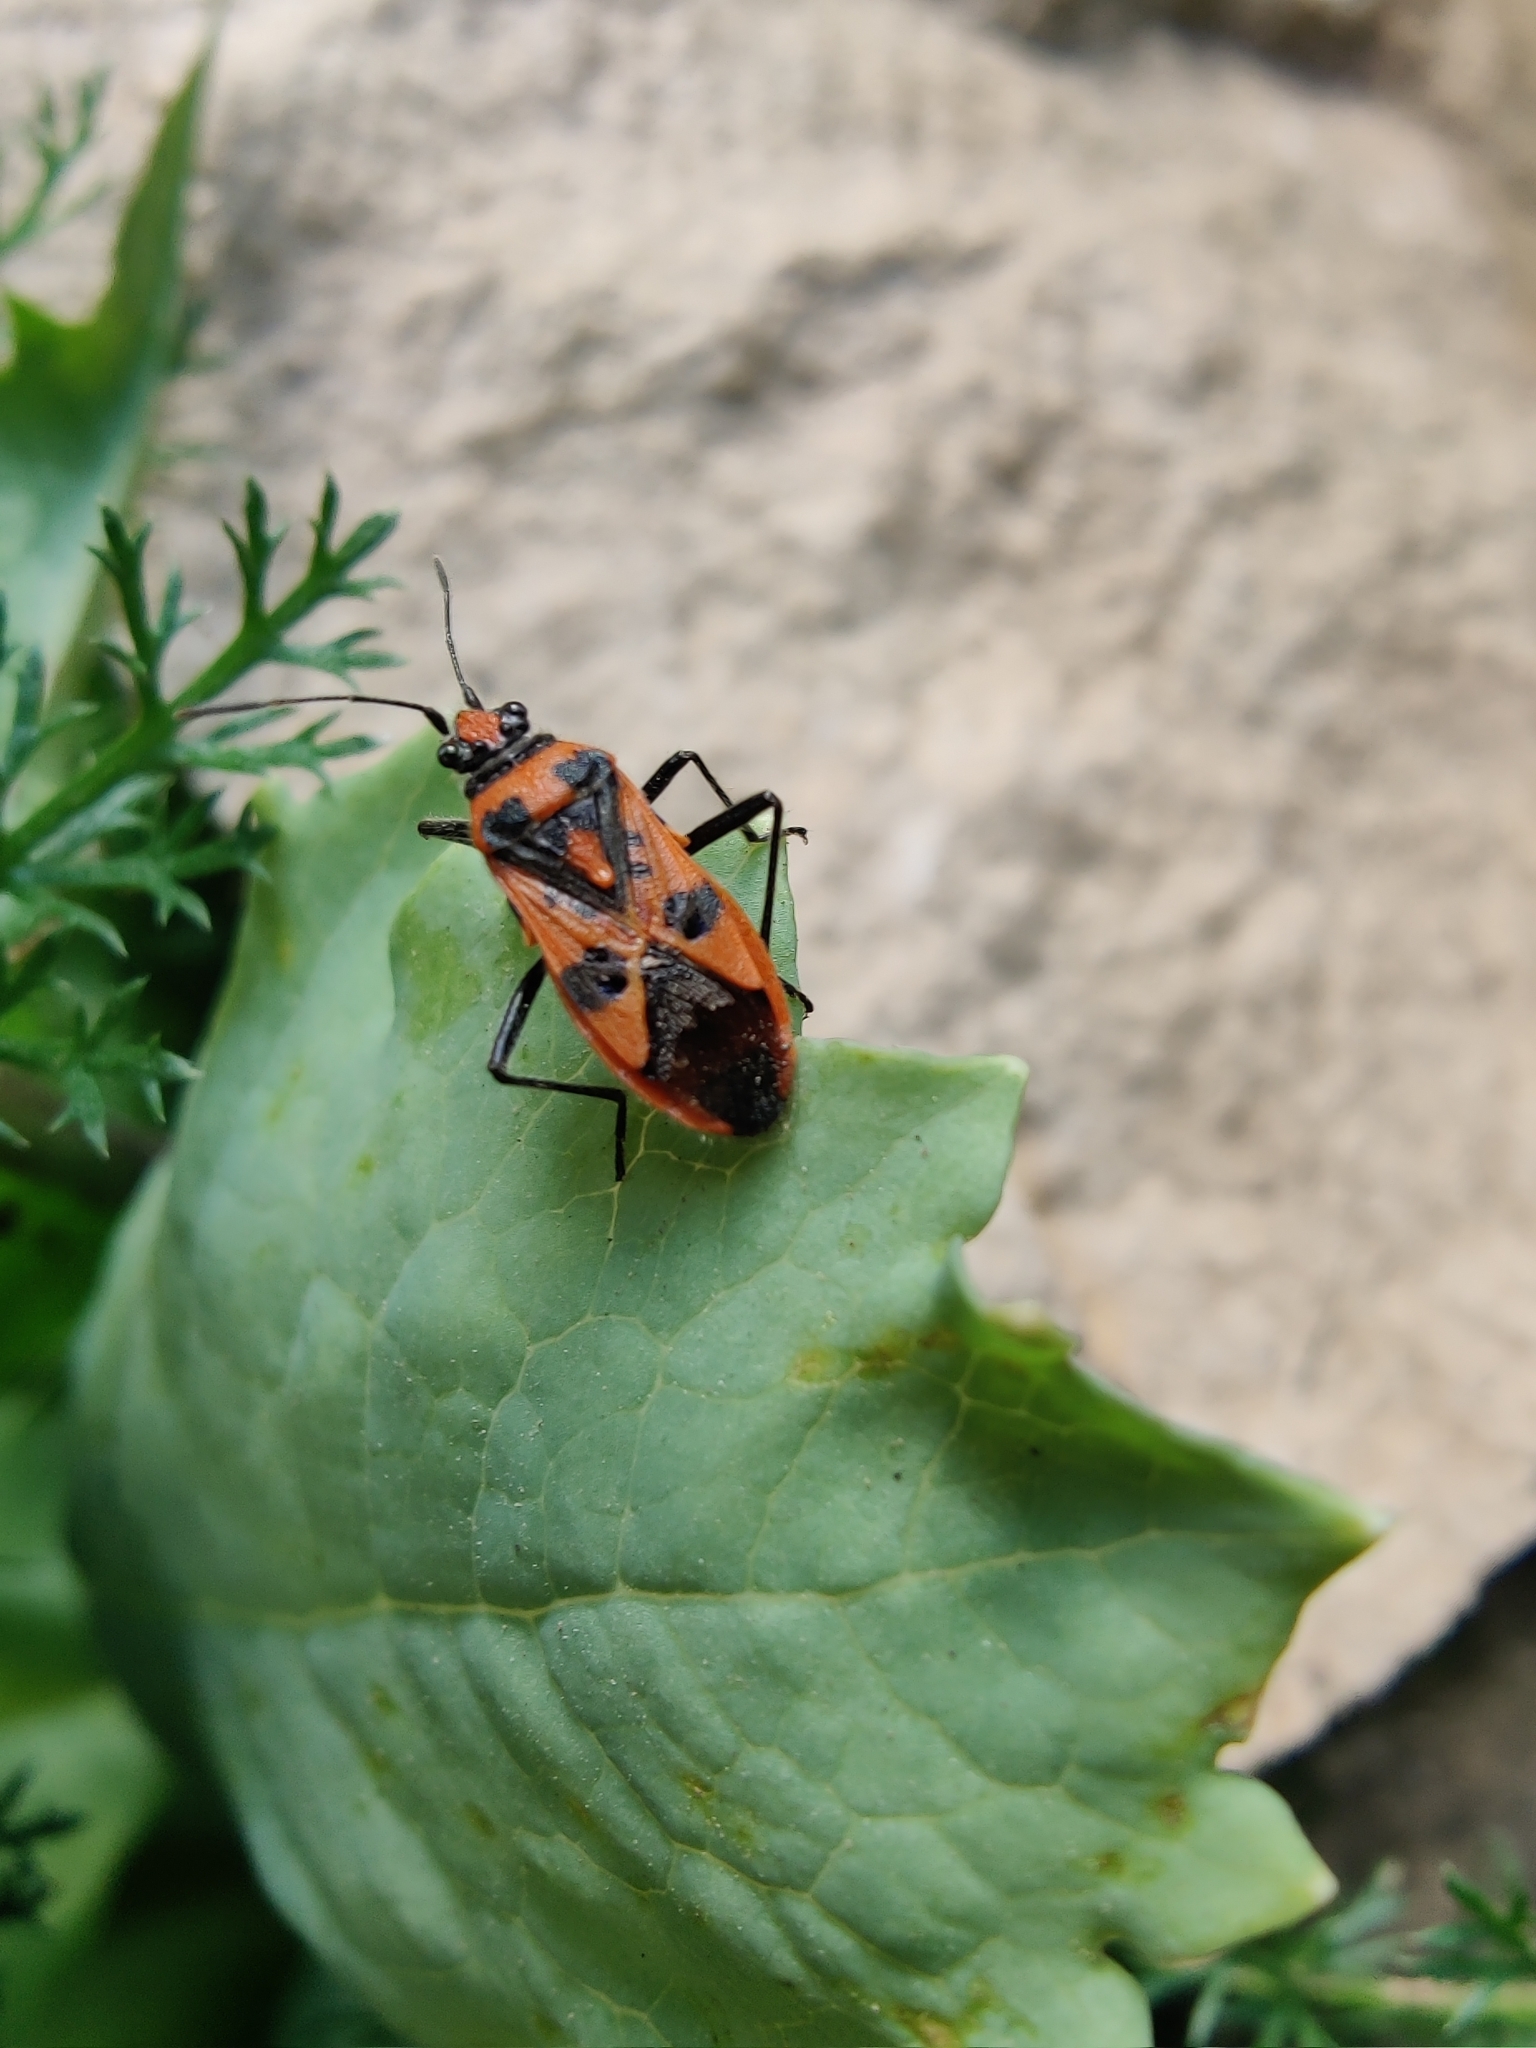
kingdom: Animalia
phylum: Arthropoda
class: Insecta
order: Hemiptera
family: Rhopalidae
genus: Corizus
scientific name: Corizus hyoscyami
